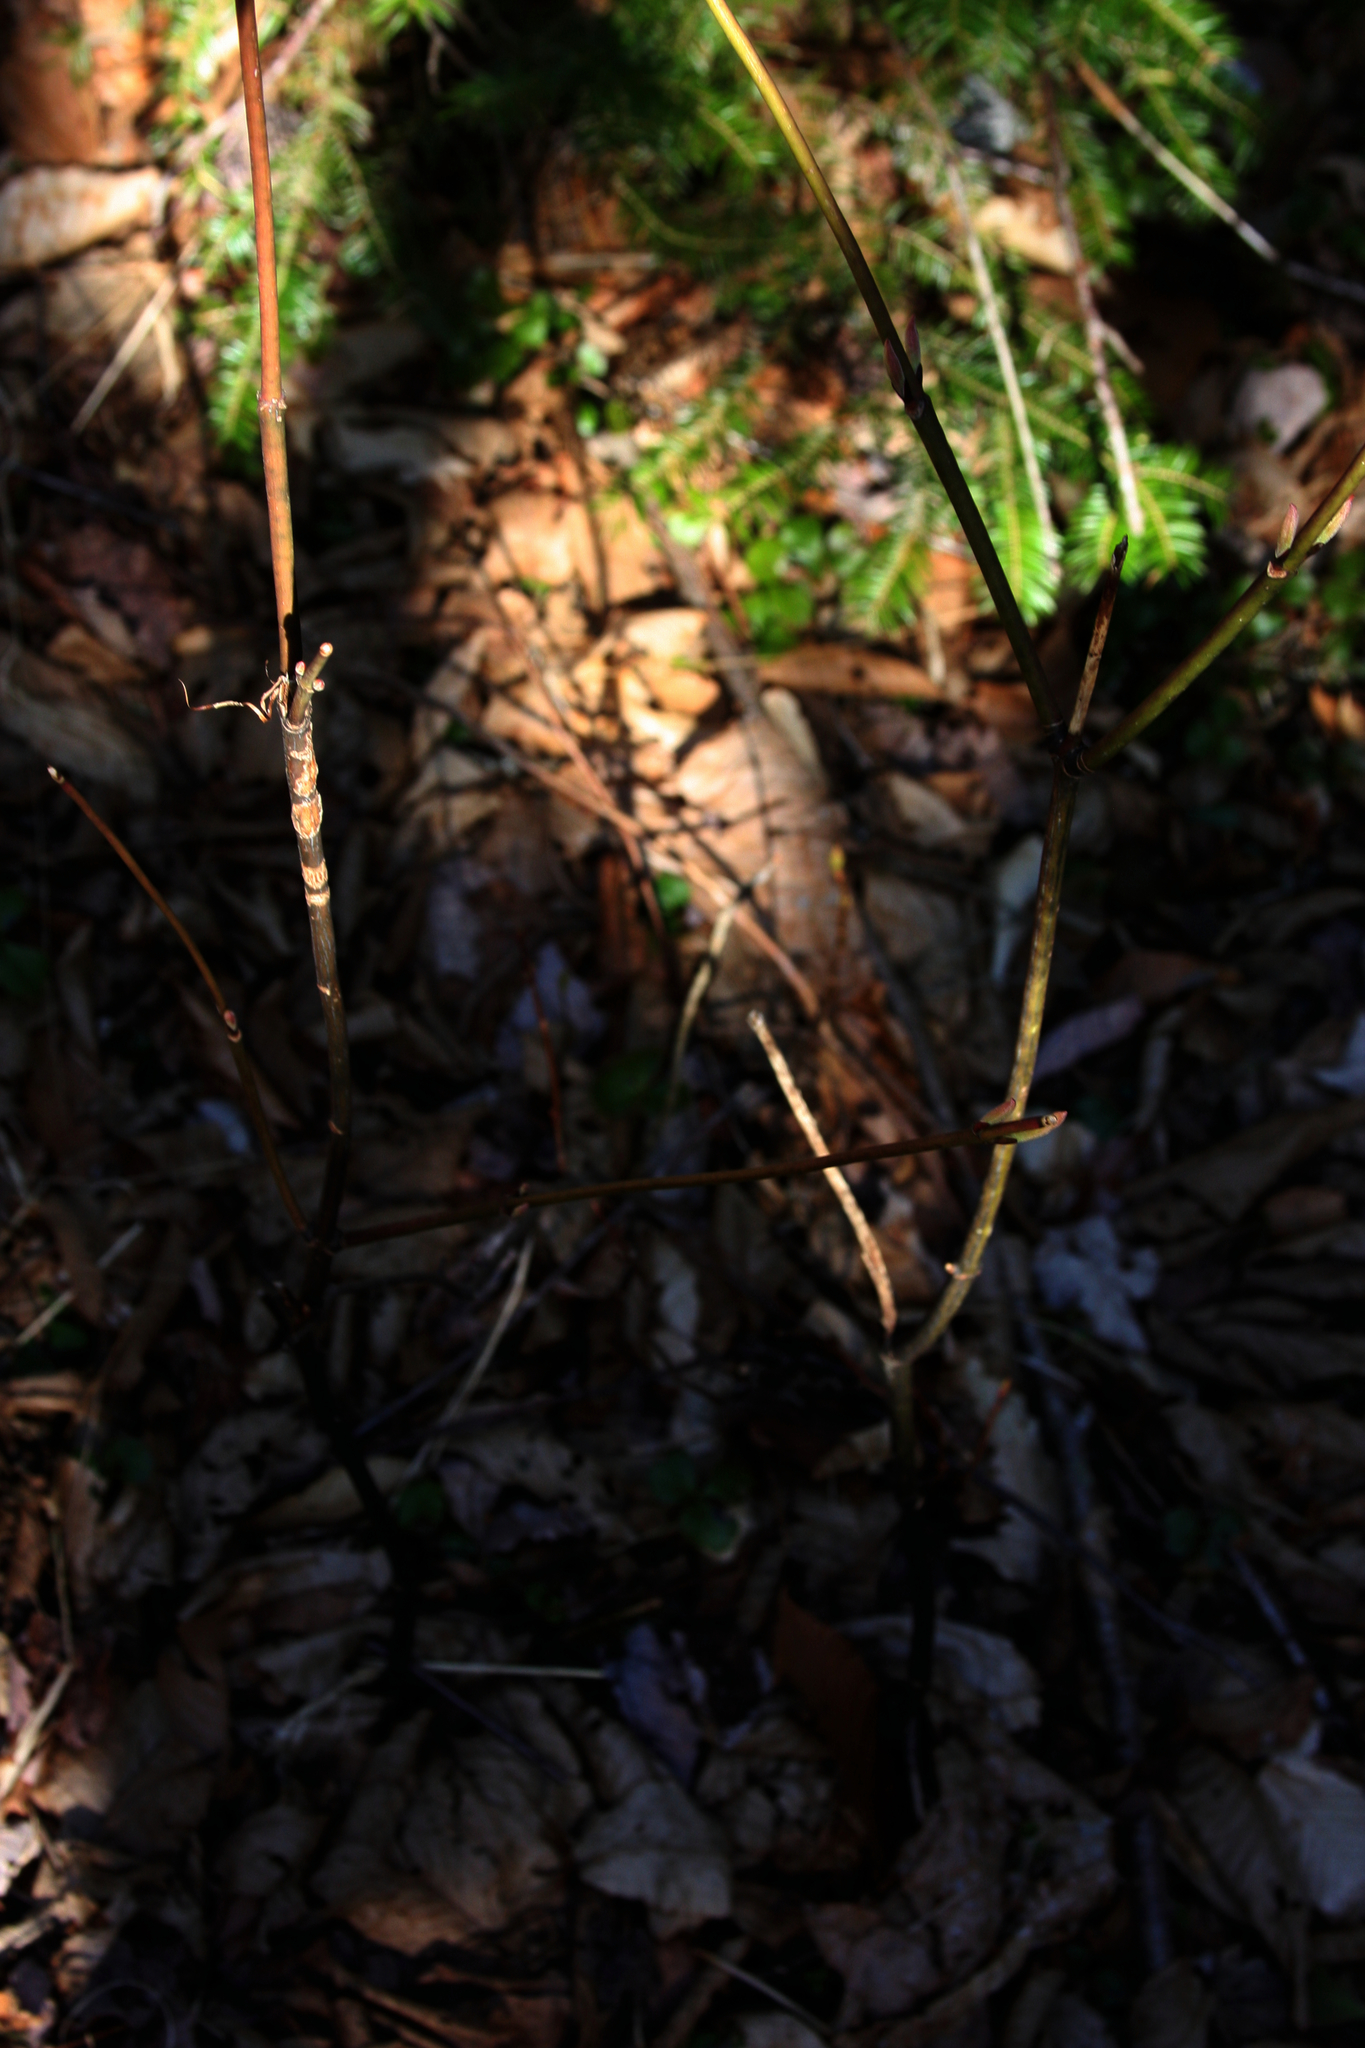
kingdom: Plantae
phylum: Tracheophyta
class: Magnoliopsida
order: Sapindales
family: Sapindaceae
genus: Acer
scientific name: Acer pensylvanicum
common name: Moosewood
